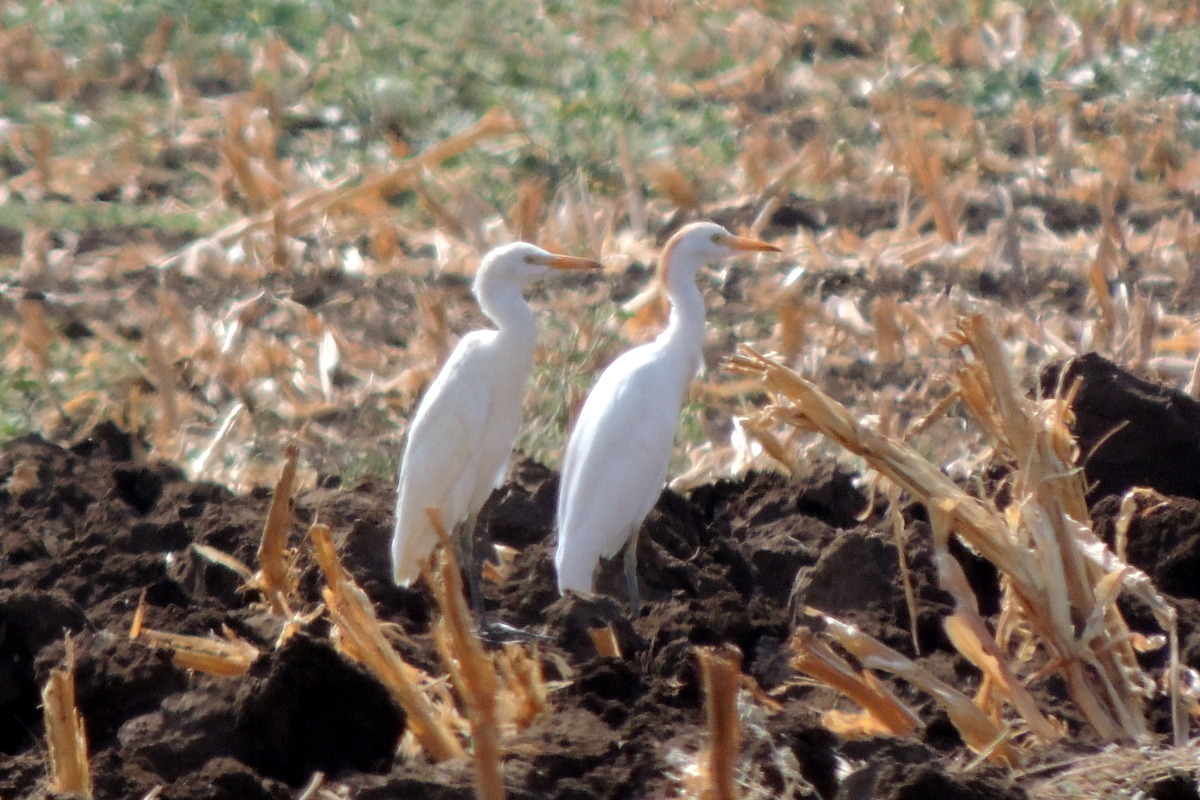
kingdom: Animalia
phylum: Chordata
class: Aves
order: Pelecaniformes
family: Ardeidae
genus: Bubulcus
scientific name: Bubulcus ibis
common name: Cattle egret
